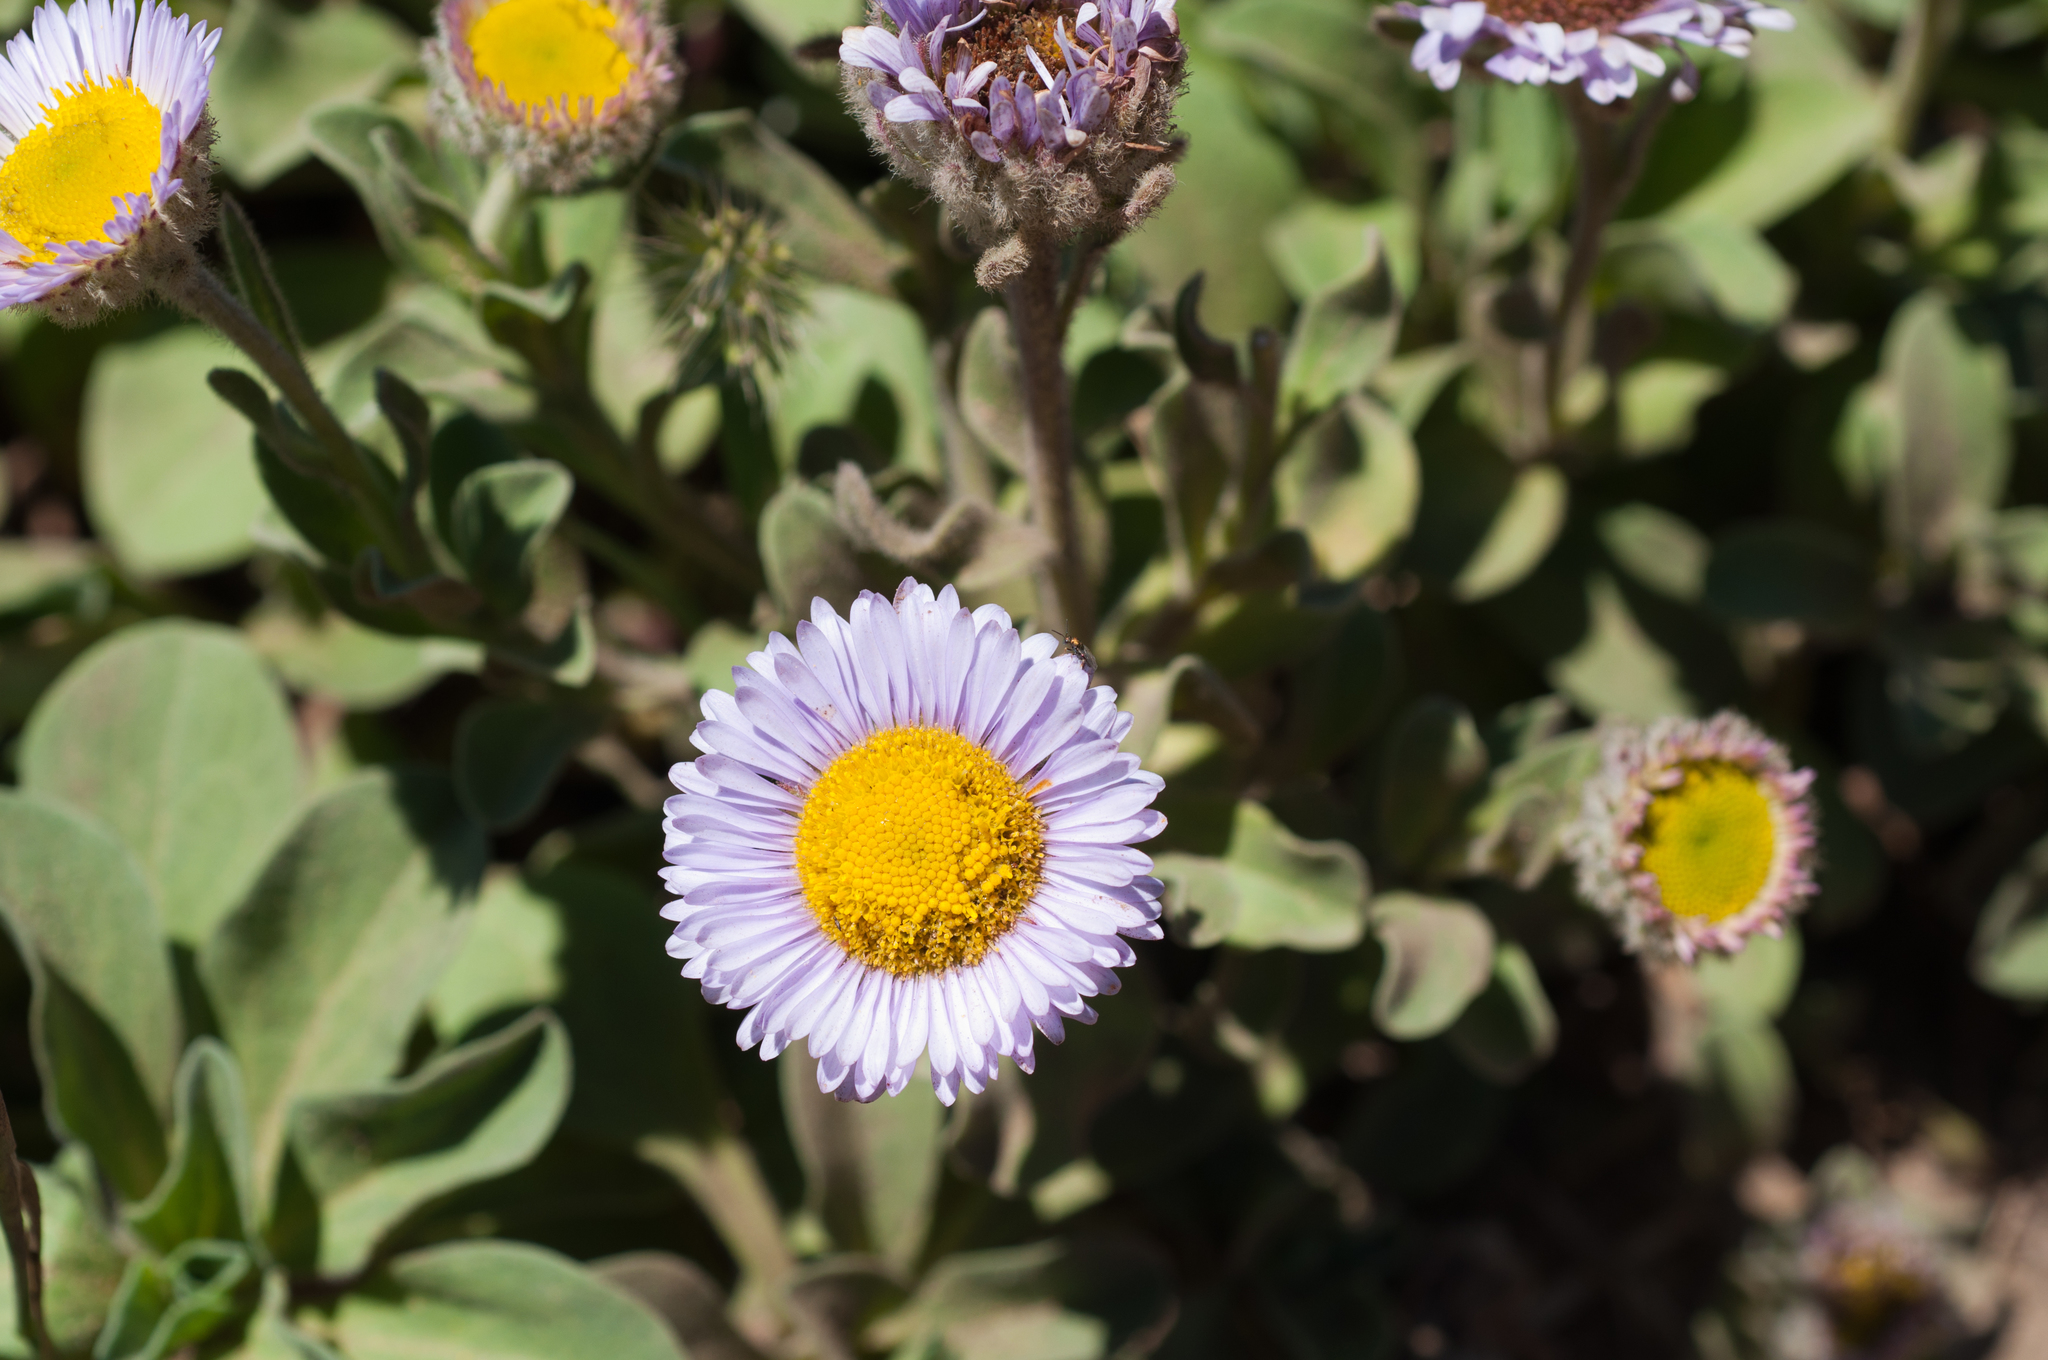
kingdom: Plantae
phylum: Tracheophyta
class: Magnoliopsida
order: Asterales
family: Asteraceae
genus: Erigeron
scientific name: Erigeron glaucus
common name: Seaside daisy
